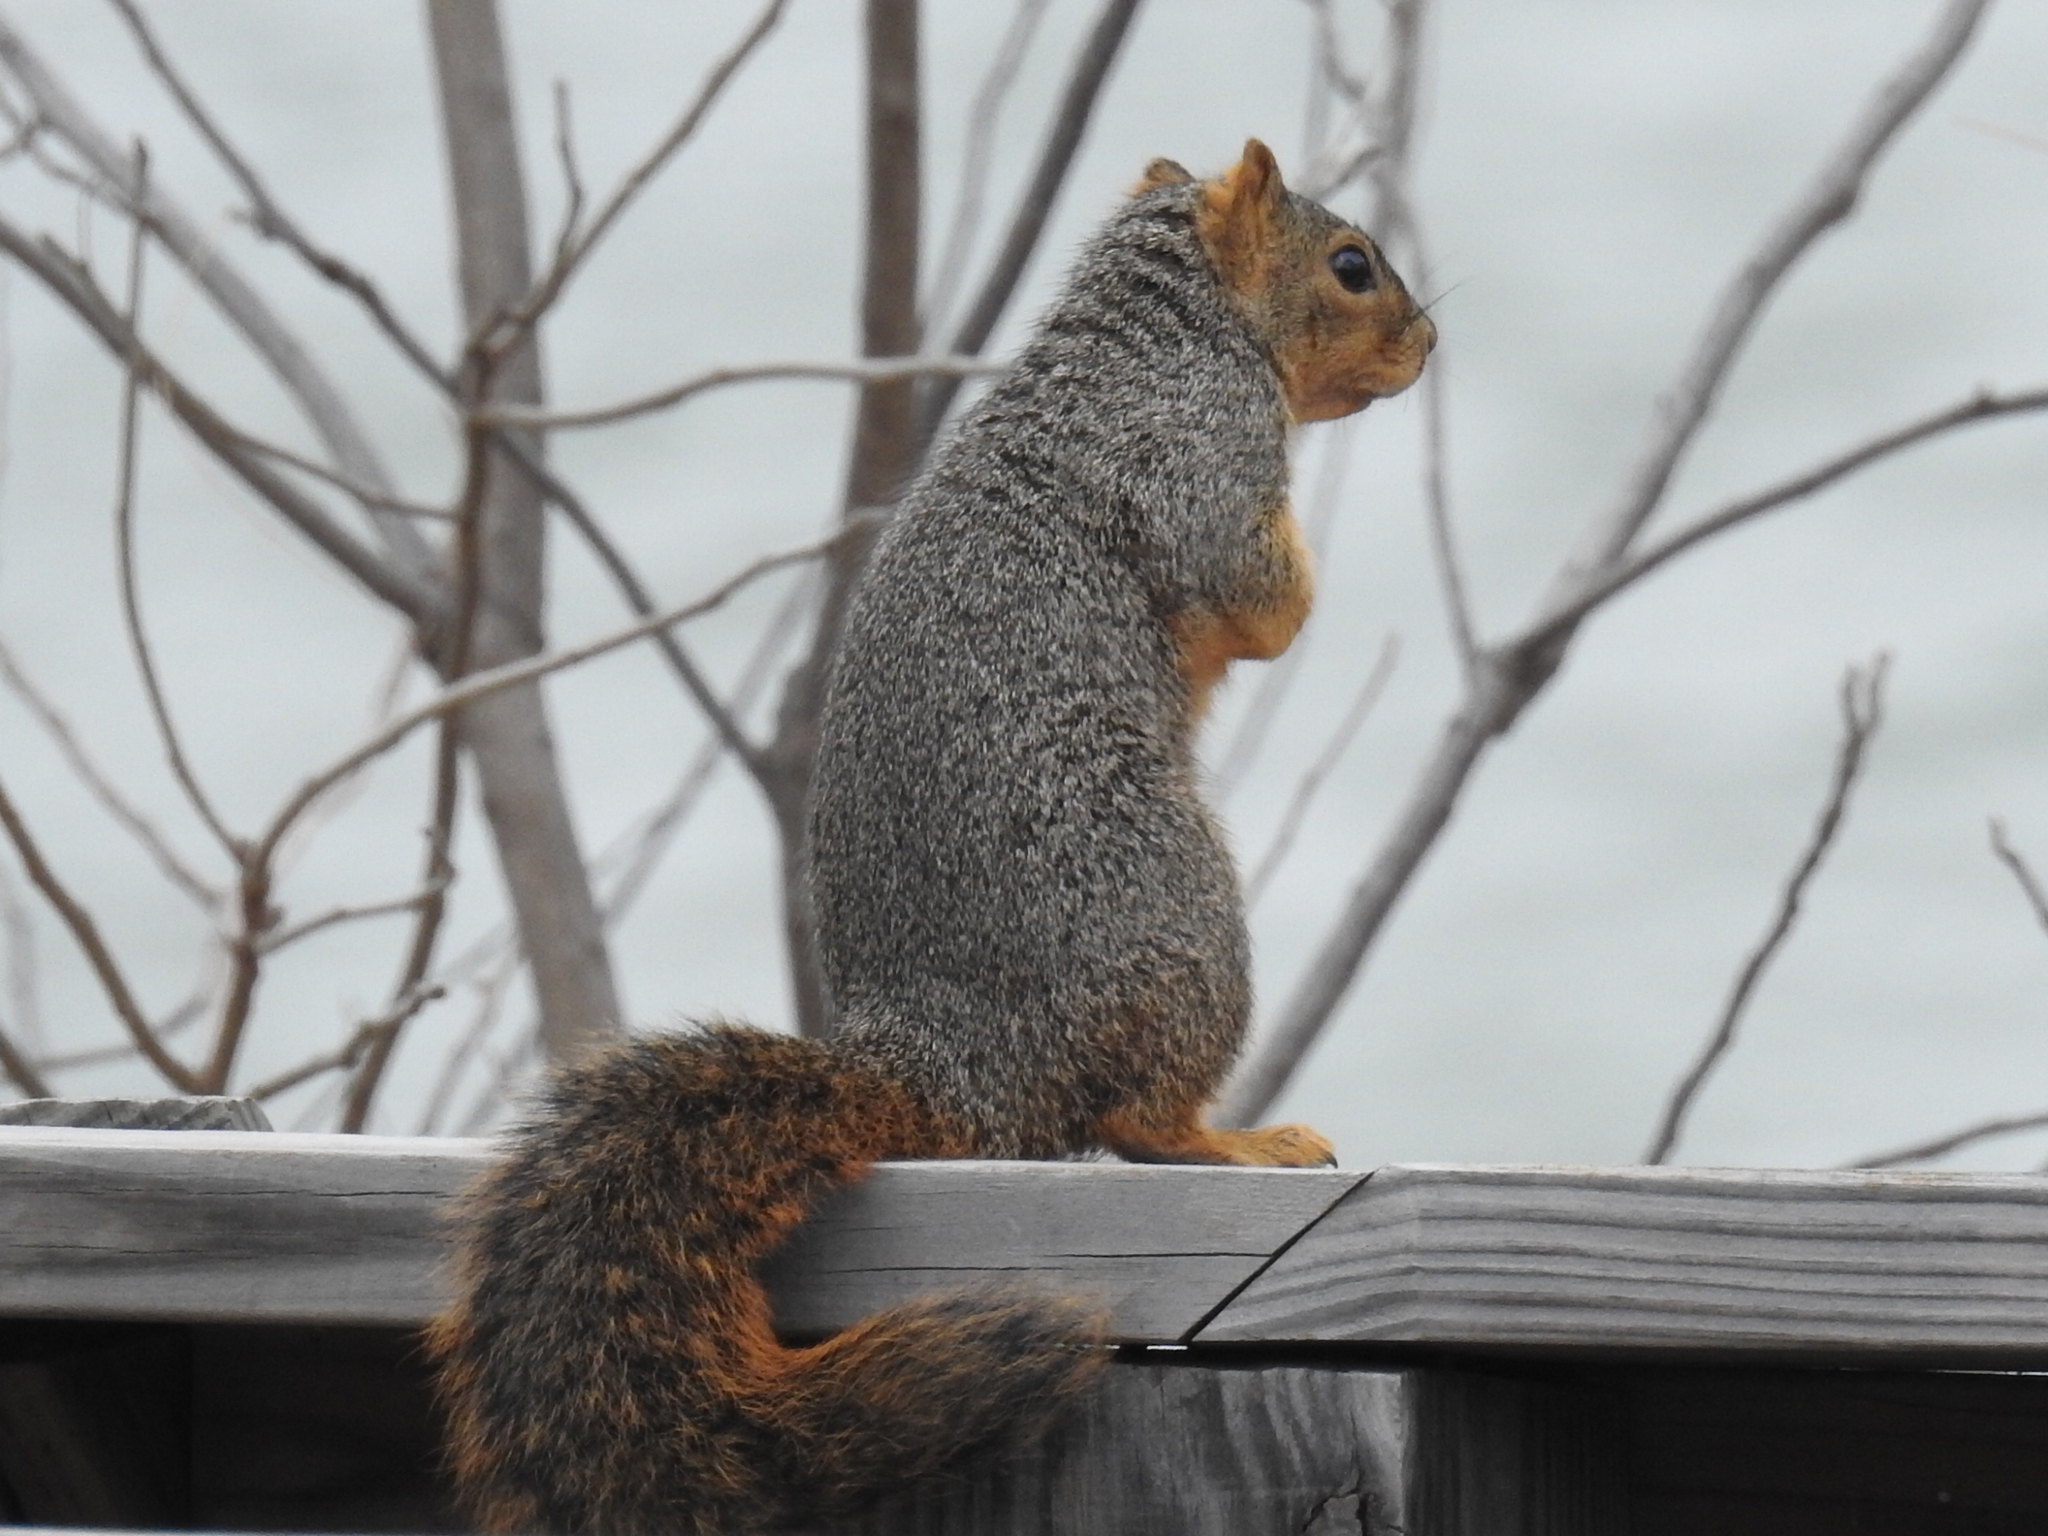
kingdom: Animalia
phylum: Chordata
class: Mammalia
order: Rodentia
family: Sciuridae
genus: Sciurus
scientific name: Sciurus niger
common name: Fox squirrel
